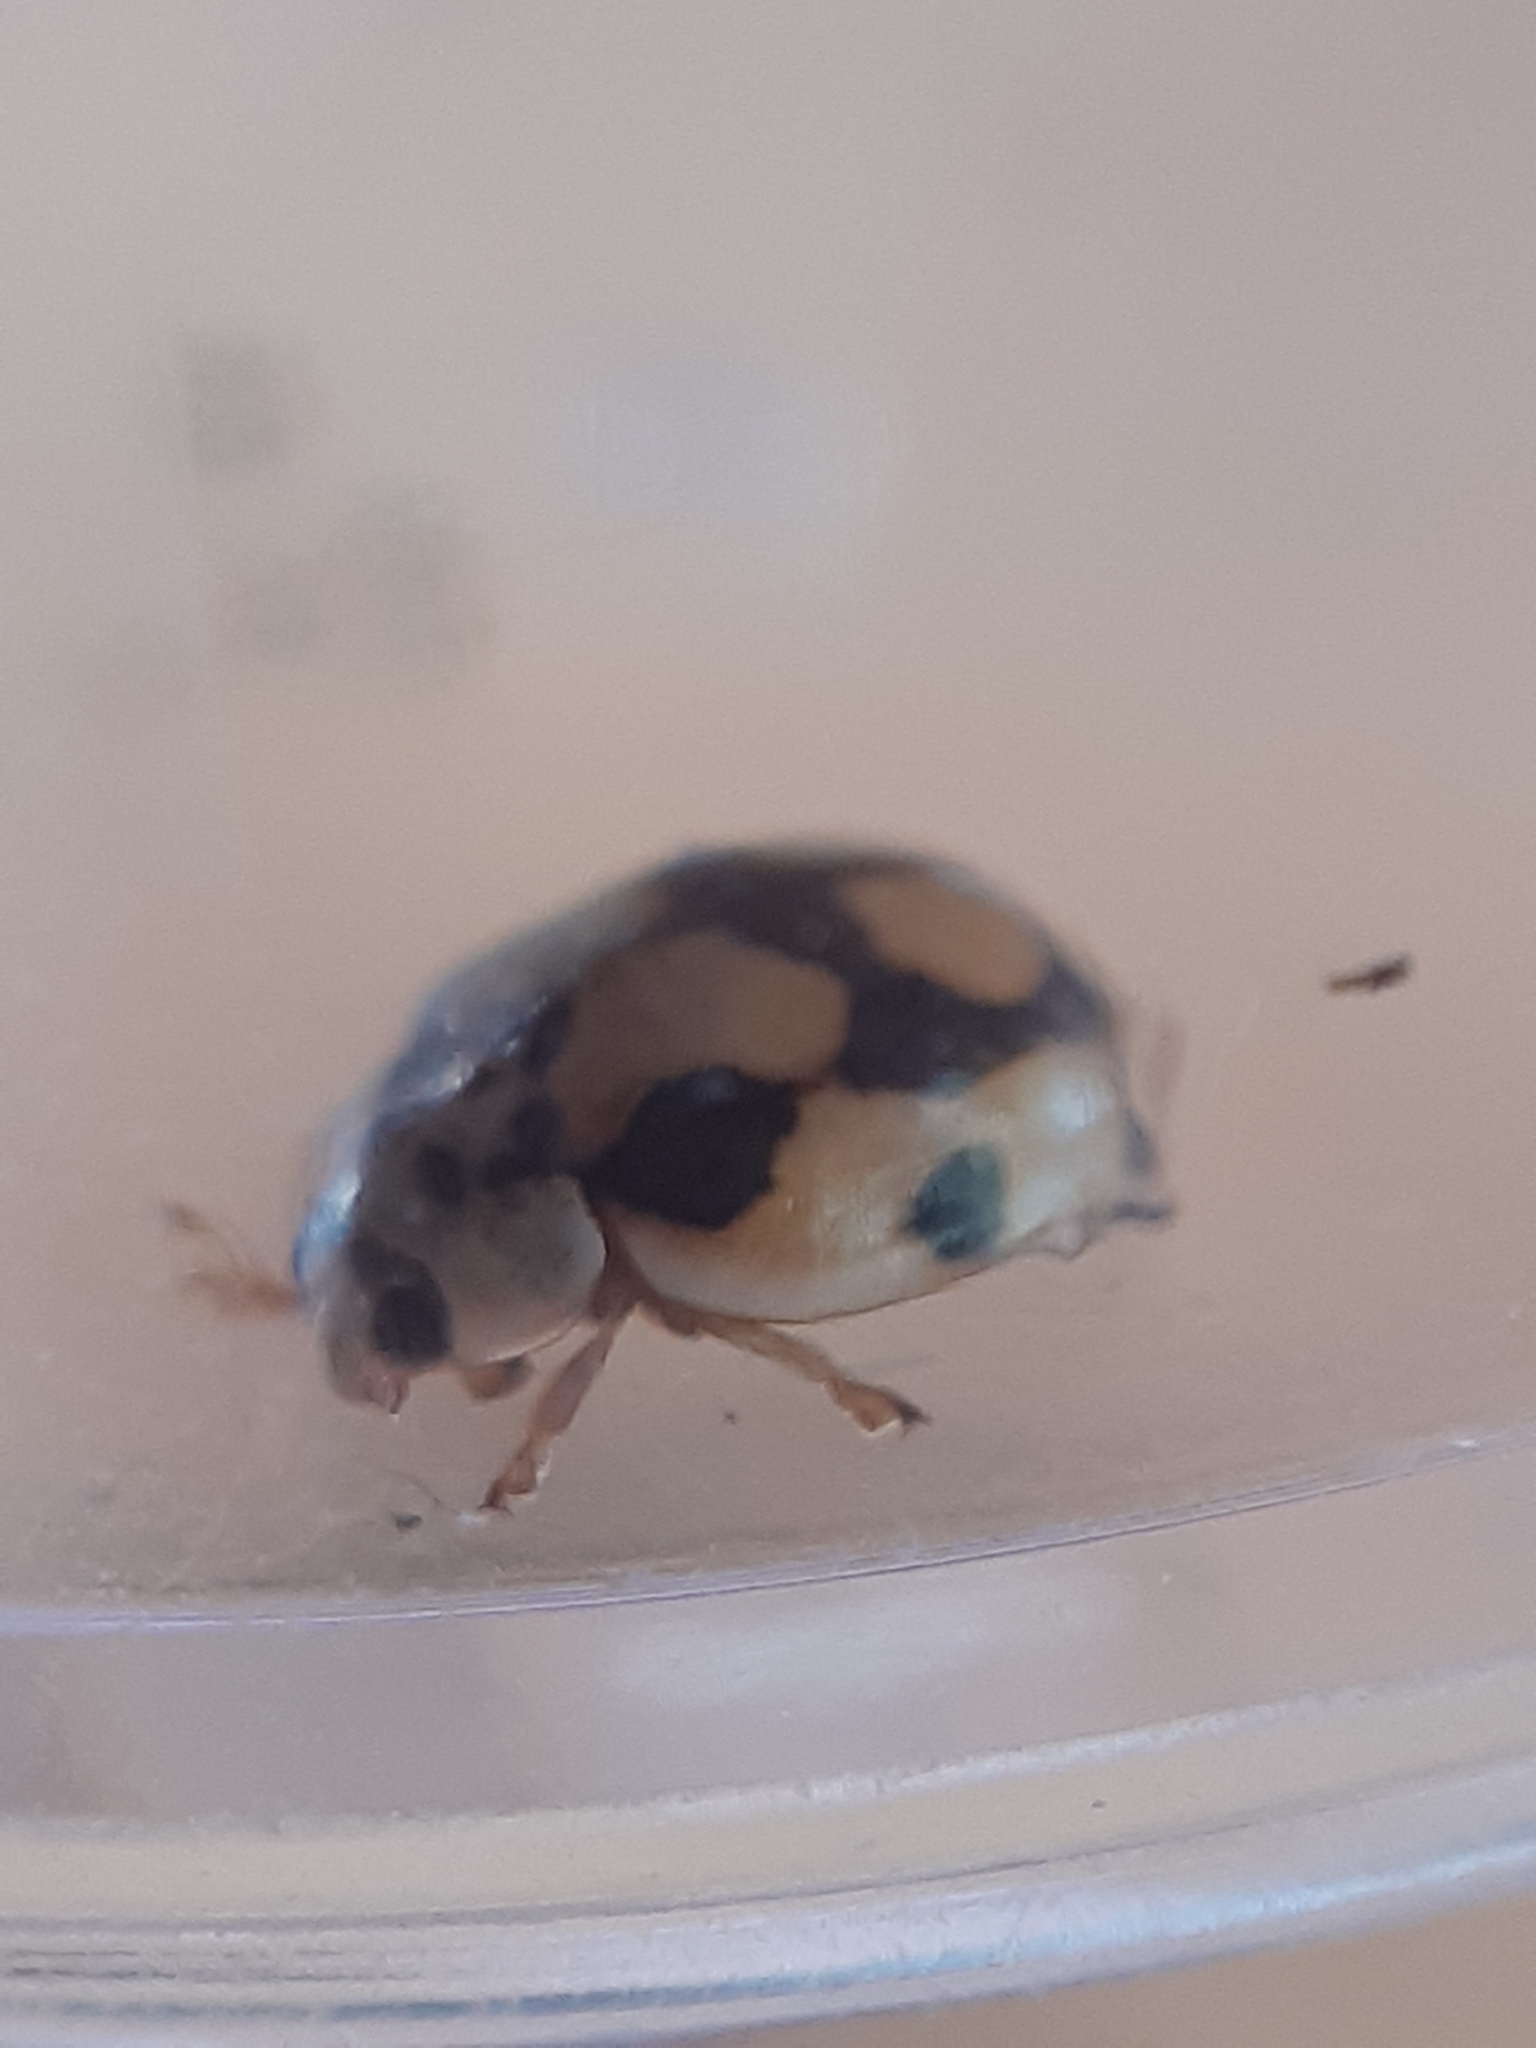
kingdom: Animalia
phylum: Arthropoda
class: Insecta
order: Coleoptera
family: Coccinellidae
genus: Adalia
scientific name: Adalia decempunctata
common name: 10-spot ladybird
